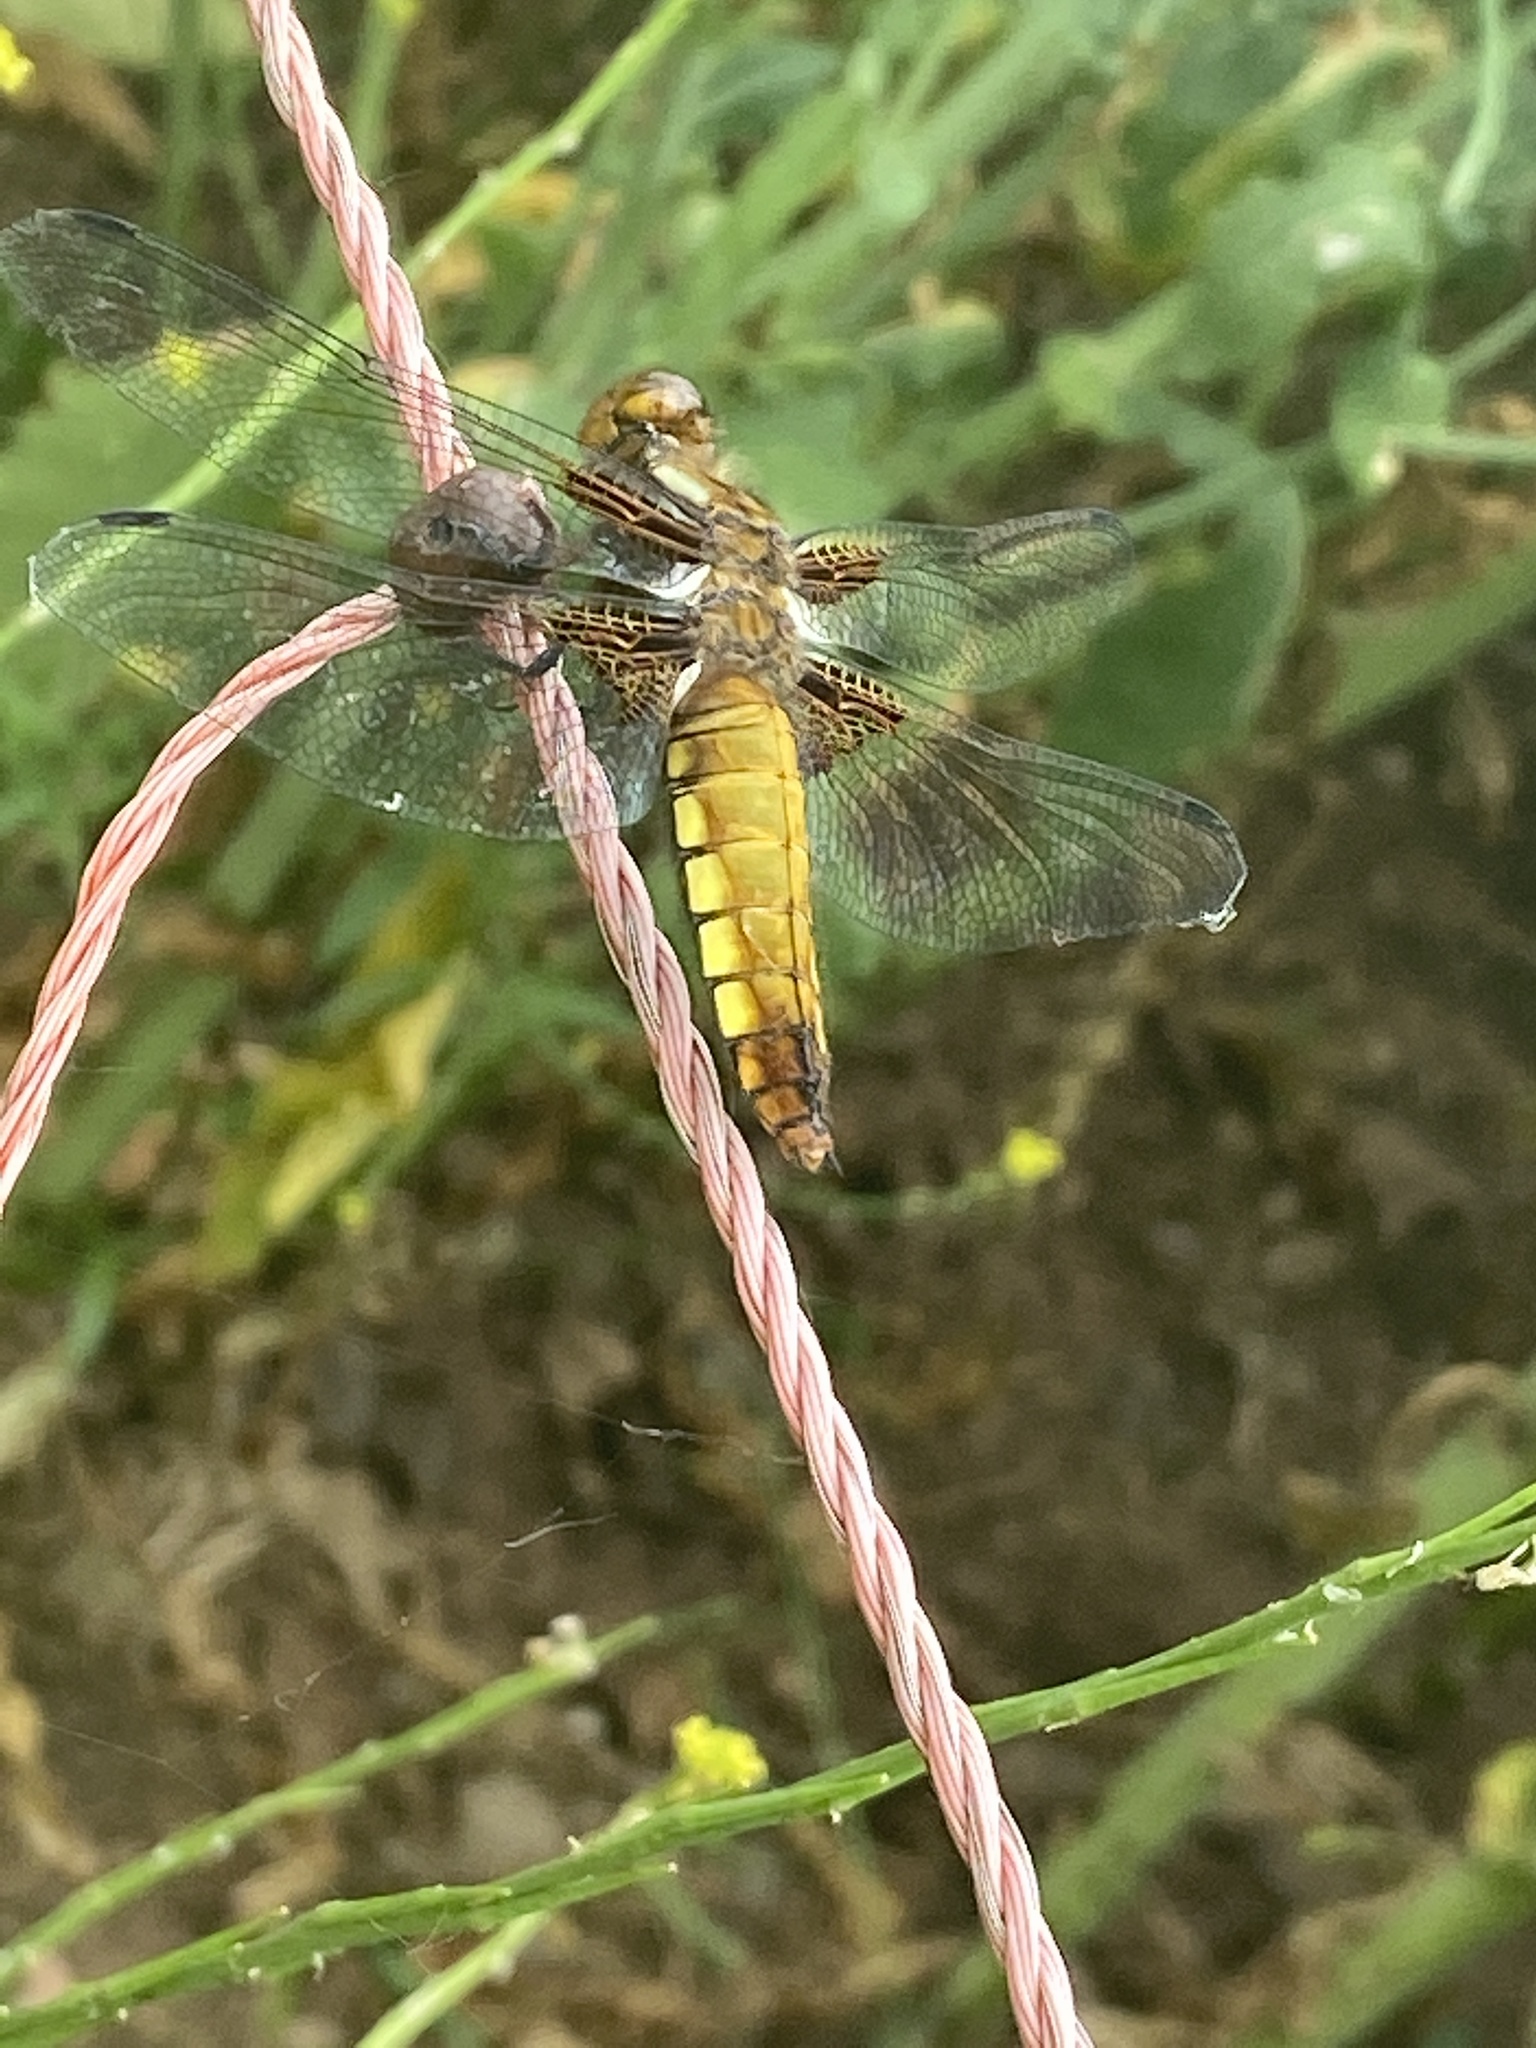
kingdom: Animalia
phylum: Arthropoda
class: Insecta
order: Odonata
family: Libellulidae
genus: Libellula
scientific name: Libellula depressa
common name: Broad-bodied chaser
